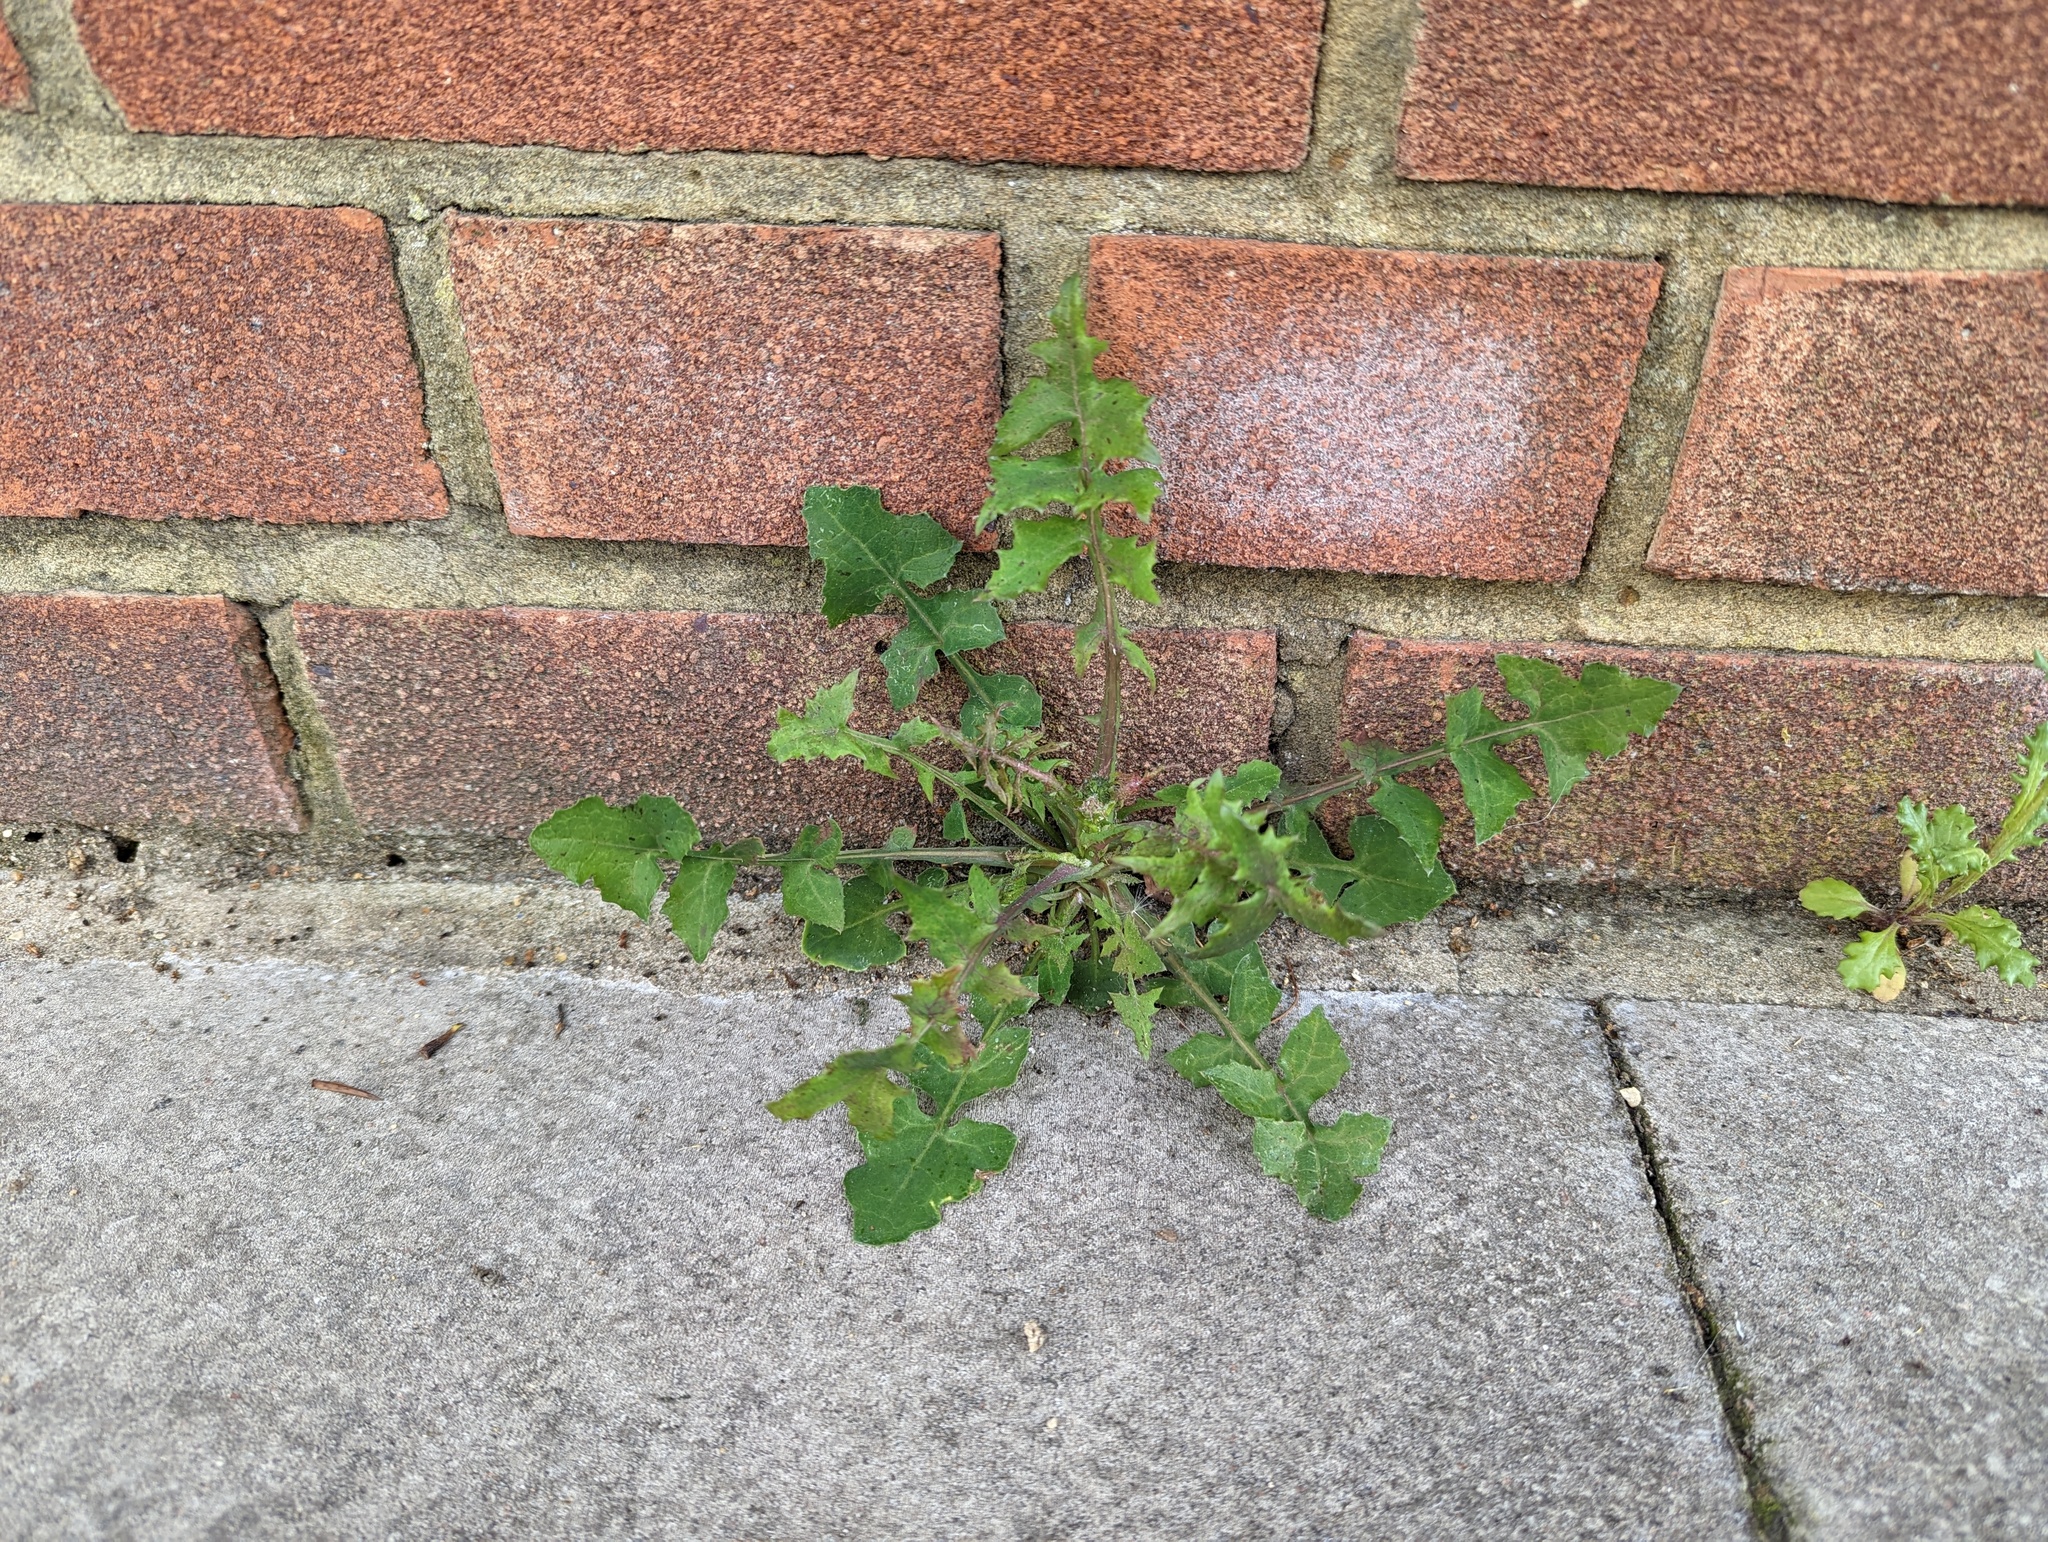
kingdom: Plantae
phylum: Tracheophyta
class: Magnoliopsida
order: Asterales
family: Asteraceae
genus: Sonchus
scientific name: Sonchus oleraceus
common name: Common sowthistle
